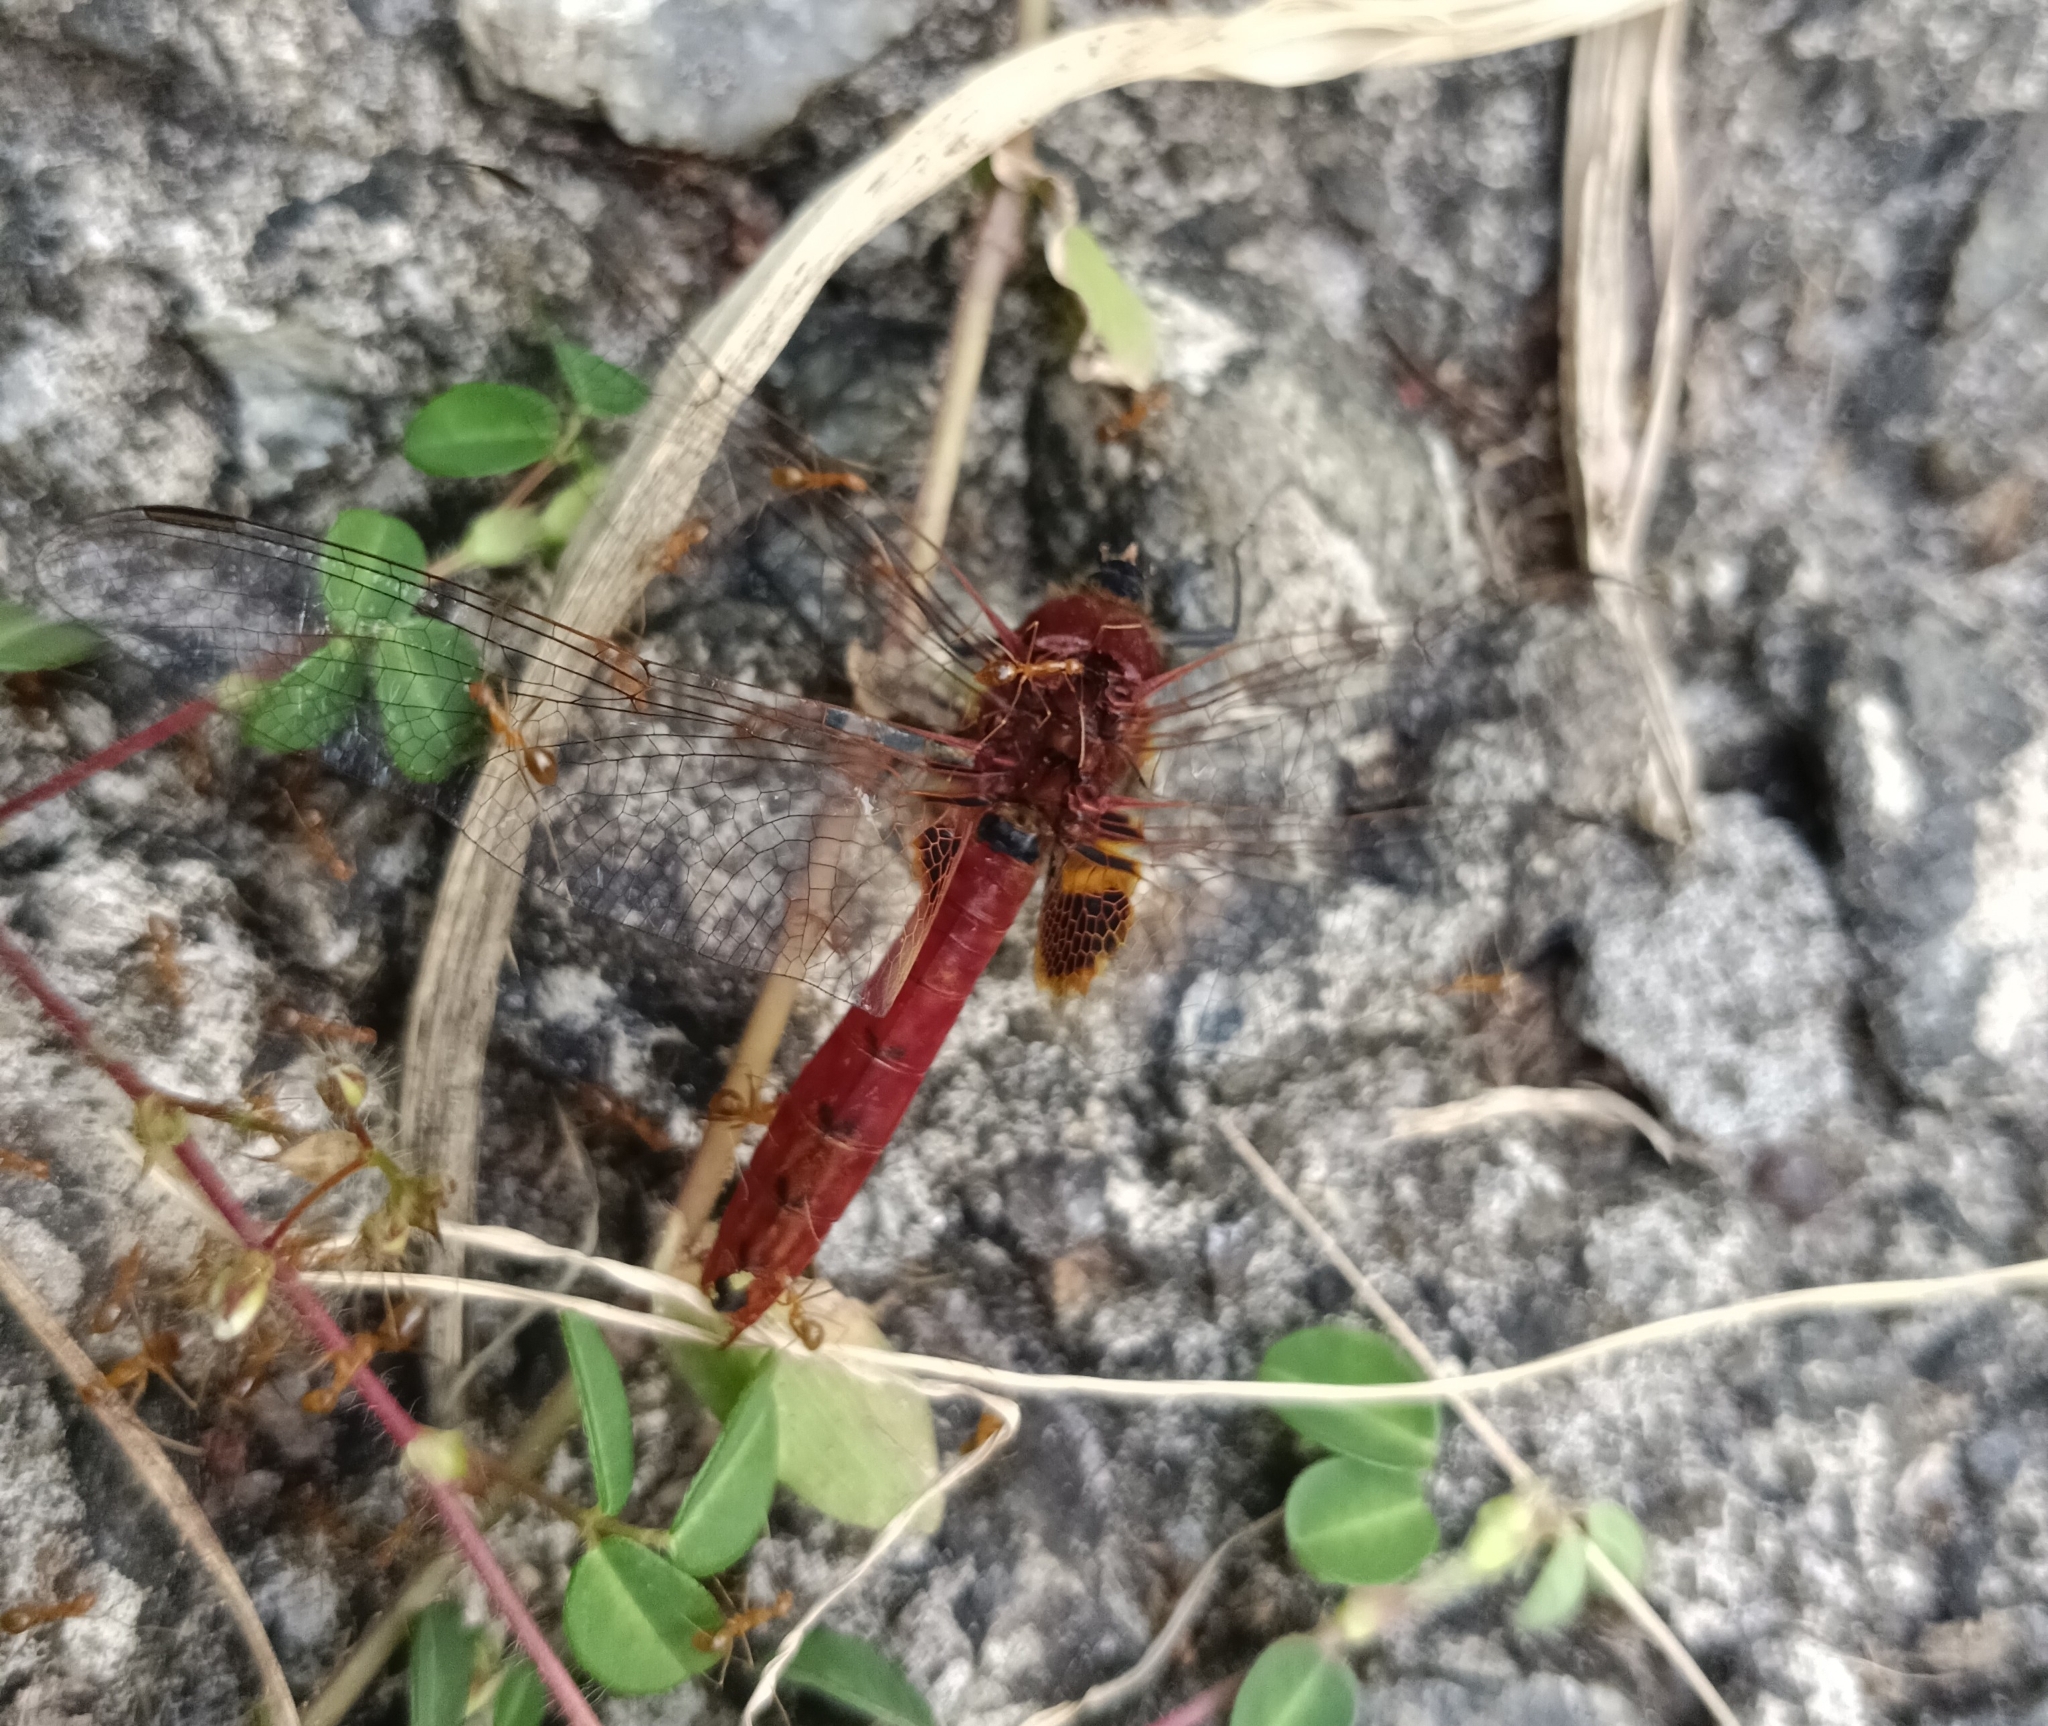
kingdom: Animalia
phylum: Arthropoda
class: Insecta
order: Odonata
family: Libellulidae
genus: Urothemis
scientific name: Urothemis signata
